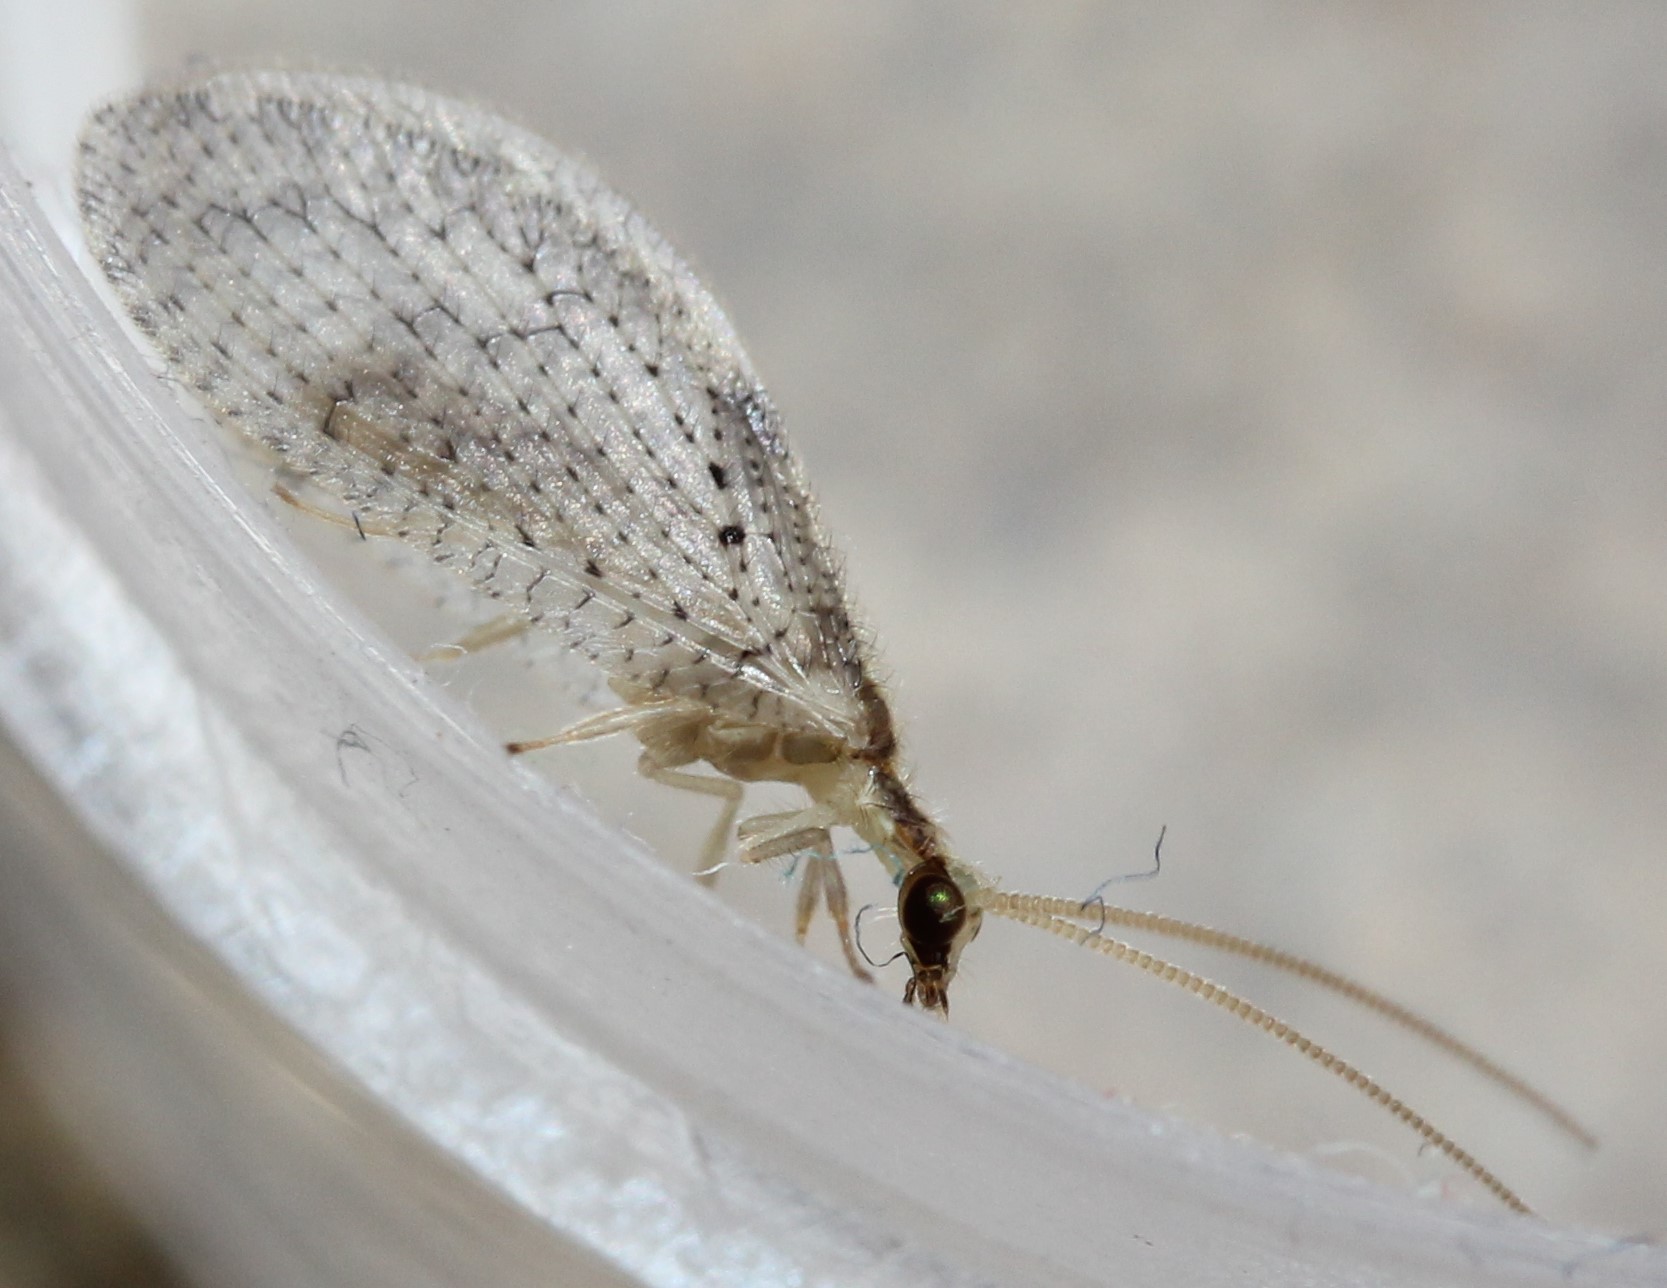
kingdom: Animalia
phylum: Arthropoda
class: Insecta
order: Neuroptera
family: Hemerobiidae
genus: Hemerobius
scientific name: Hemerobius humulinus
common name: Humulin brown lacewing
